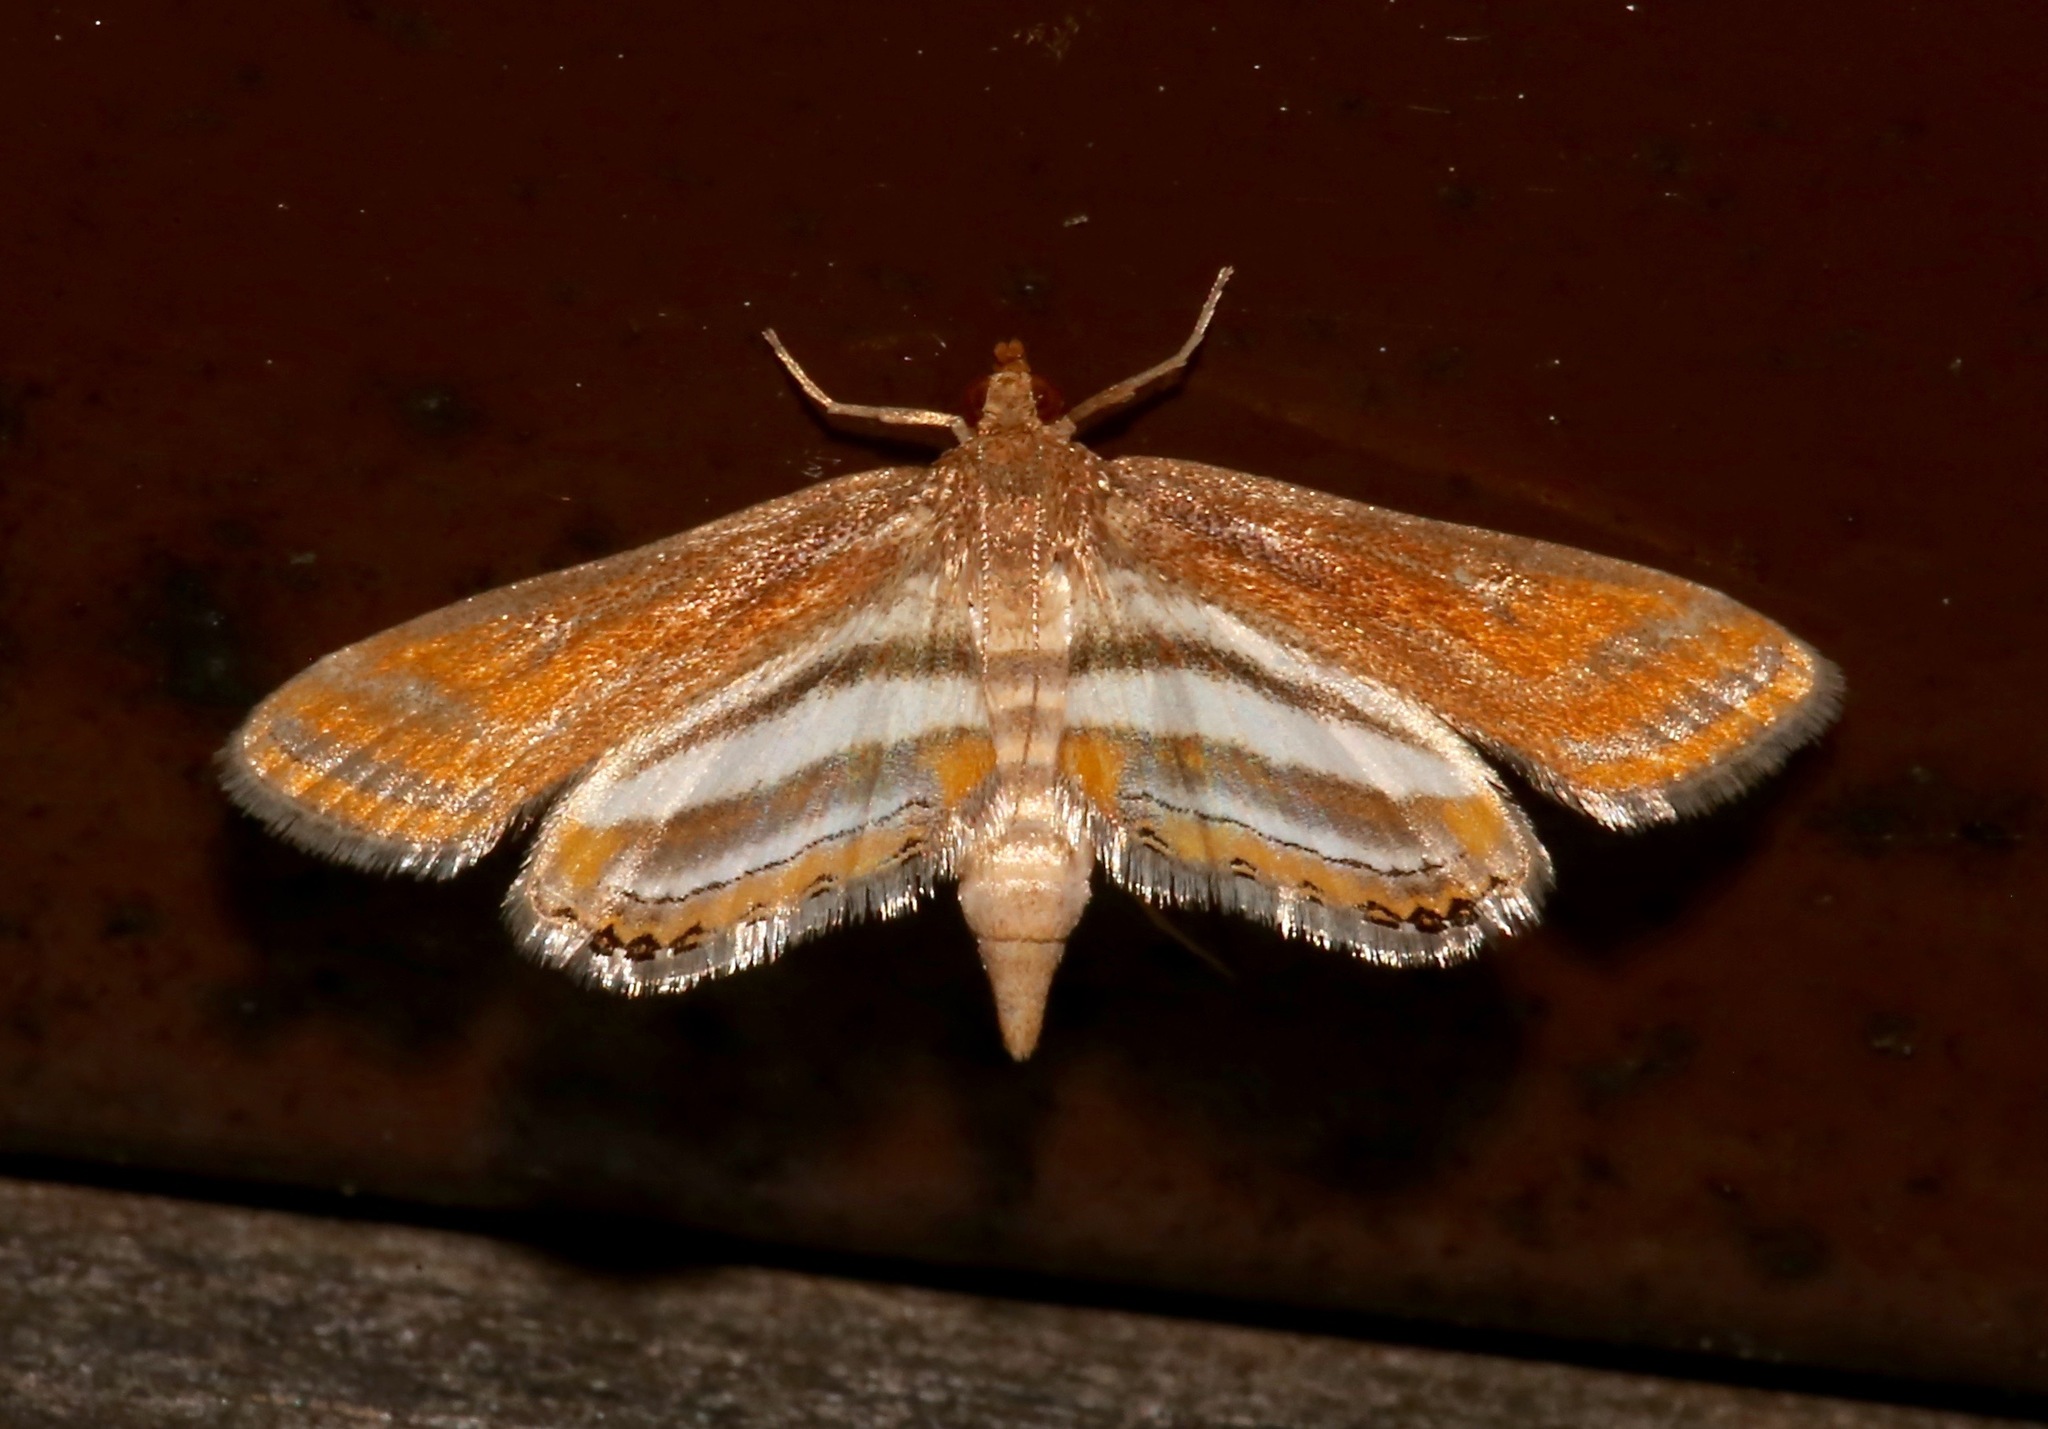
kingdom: Animalia
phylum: Arthropoda
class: Insecta
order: Lepidoptera
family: Crambidae
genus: Parapoynx
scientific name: Parapoynx seminealis
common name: Floating-heart waterlily leafcutter
